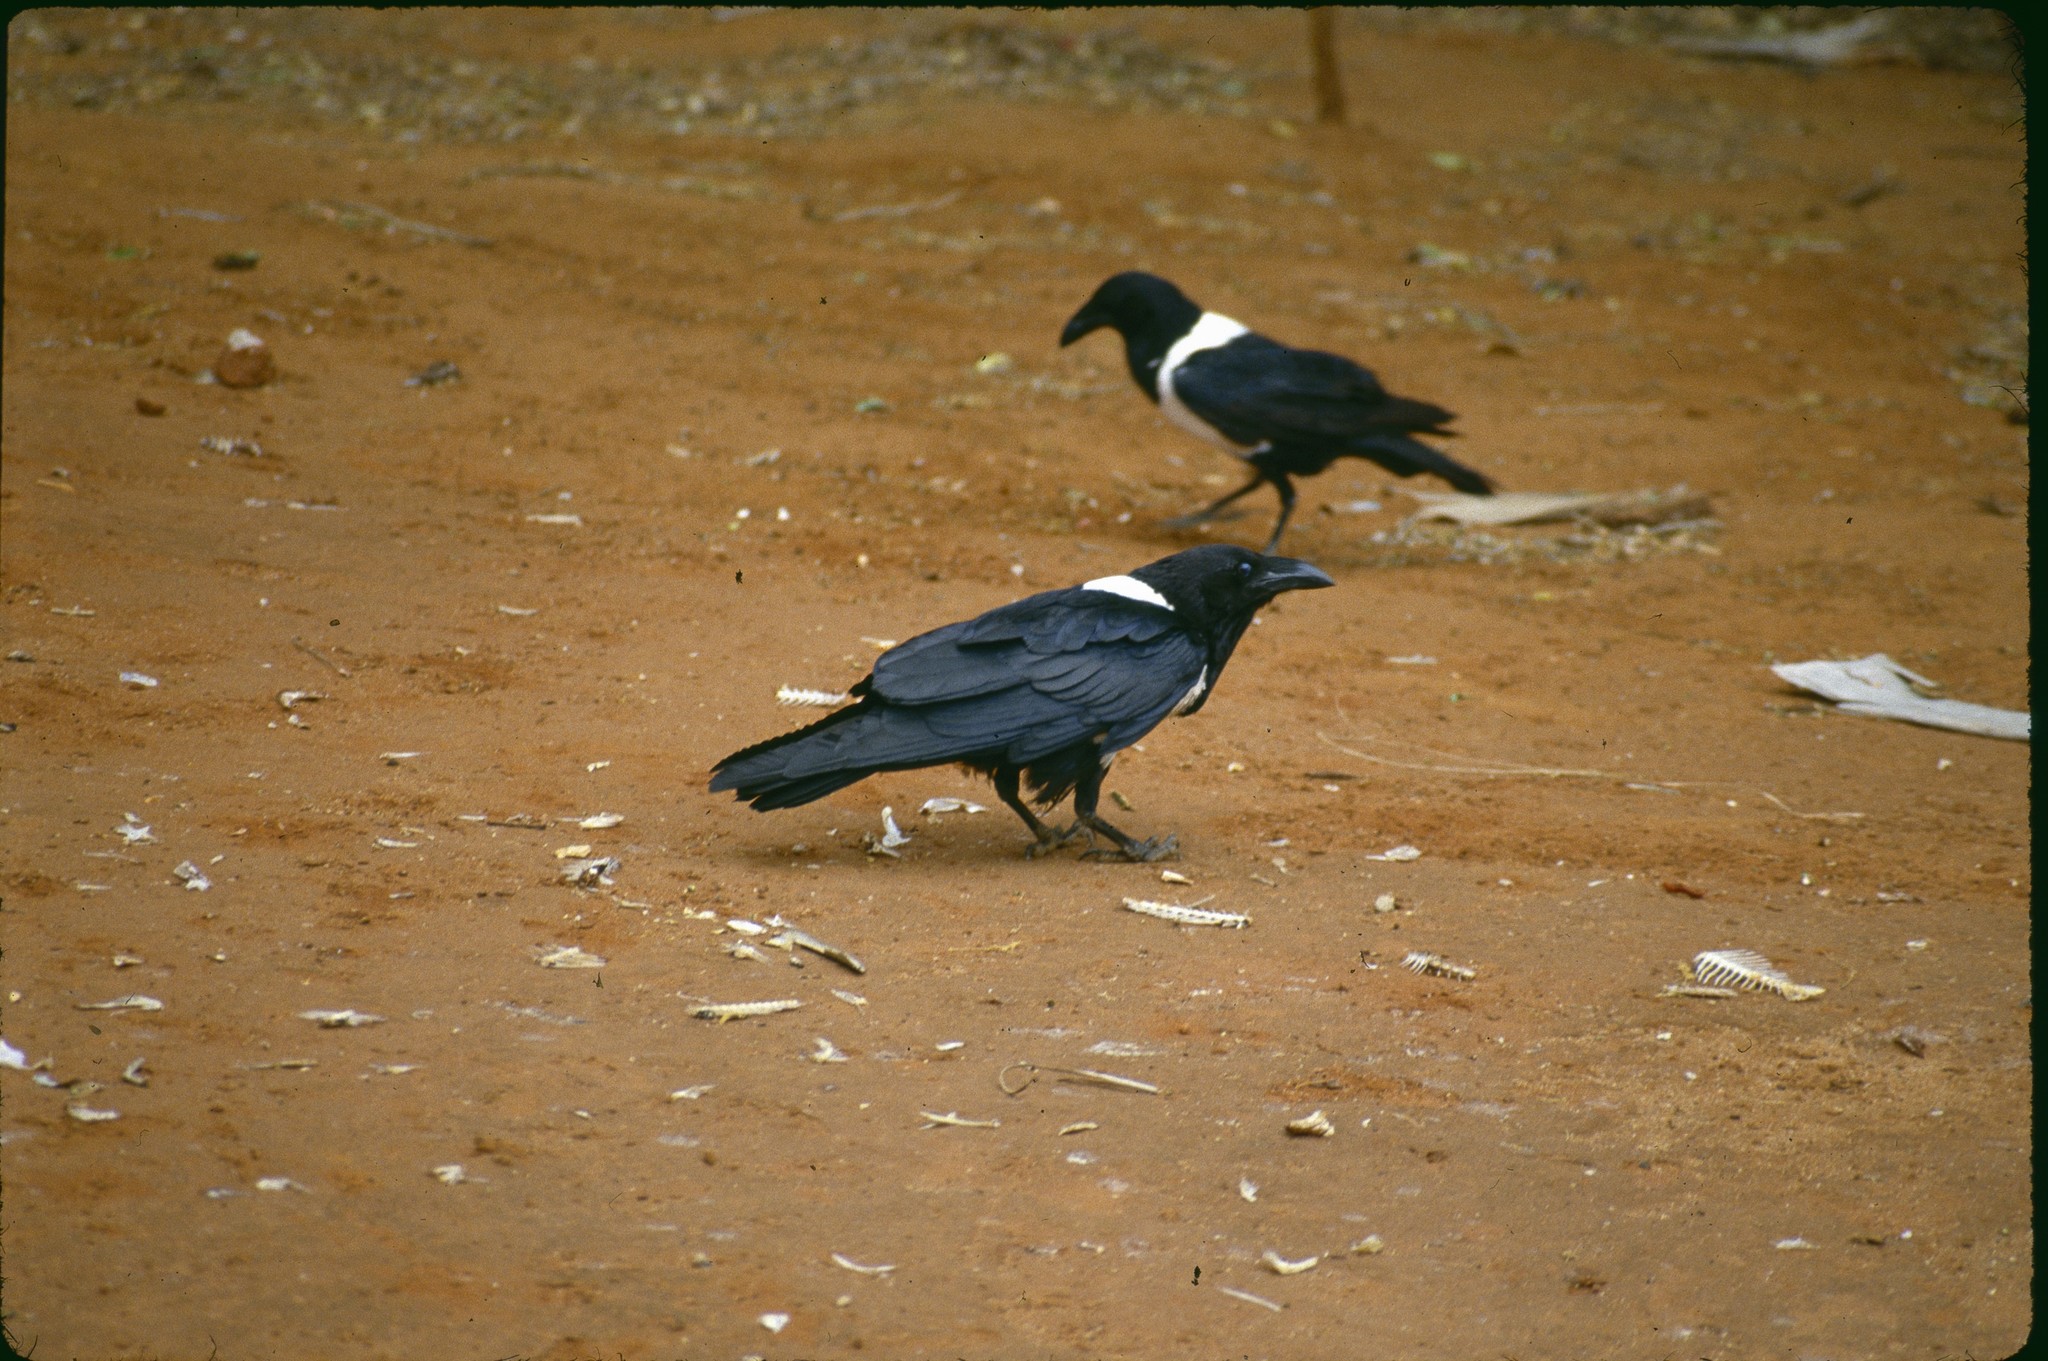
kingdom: Animalia
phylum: Chordata
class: Aves
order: Passeriformes
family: Corvidae
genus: Corvus
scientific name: Corvus albus
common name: Pied crow
